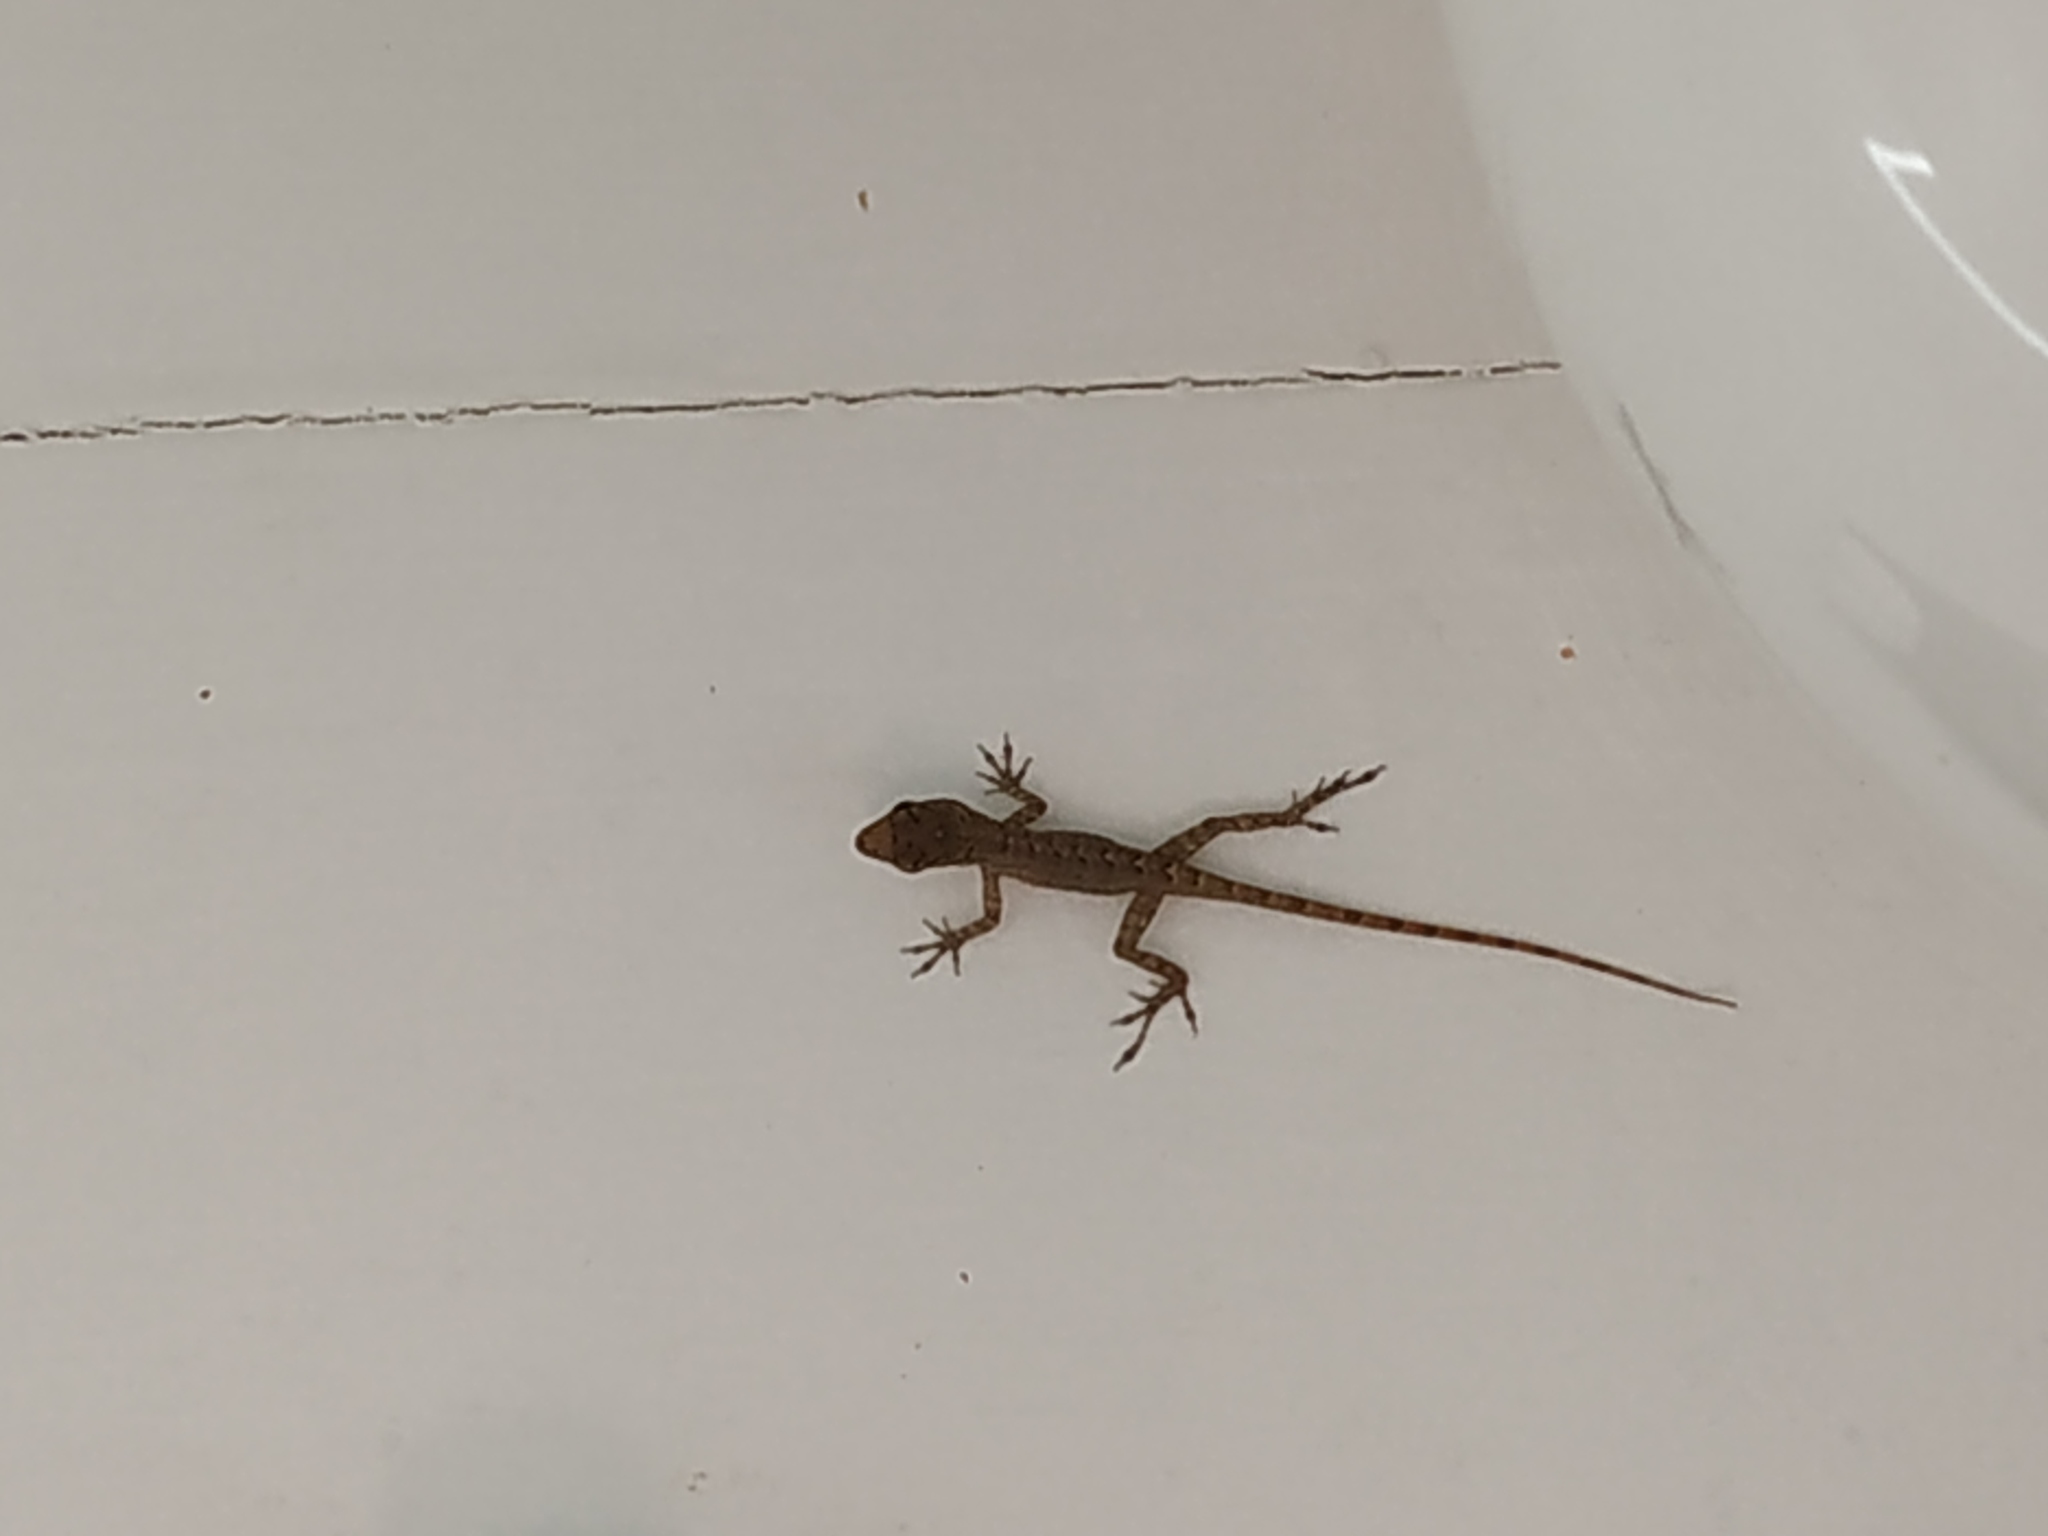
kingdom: Animalia
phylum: Chordata
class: Squamata
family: Dactyloidae
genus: Anolis
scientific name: Anolis sabanus
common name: Saba anole
